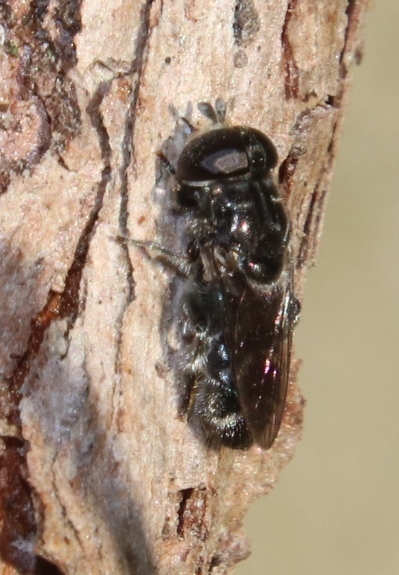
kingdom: Animalia
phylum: Arthropoda
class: Insecta
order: Diptera
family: Syrphidae
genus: Eumerus
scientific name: Eumerus obliquus
